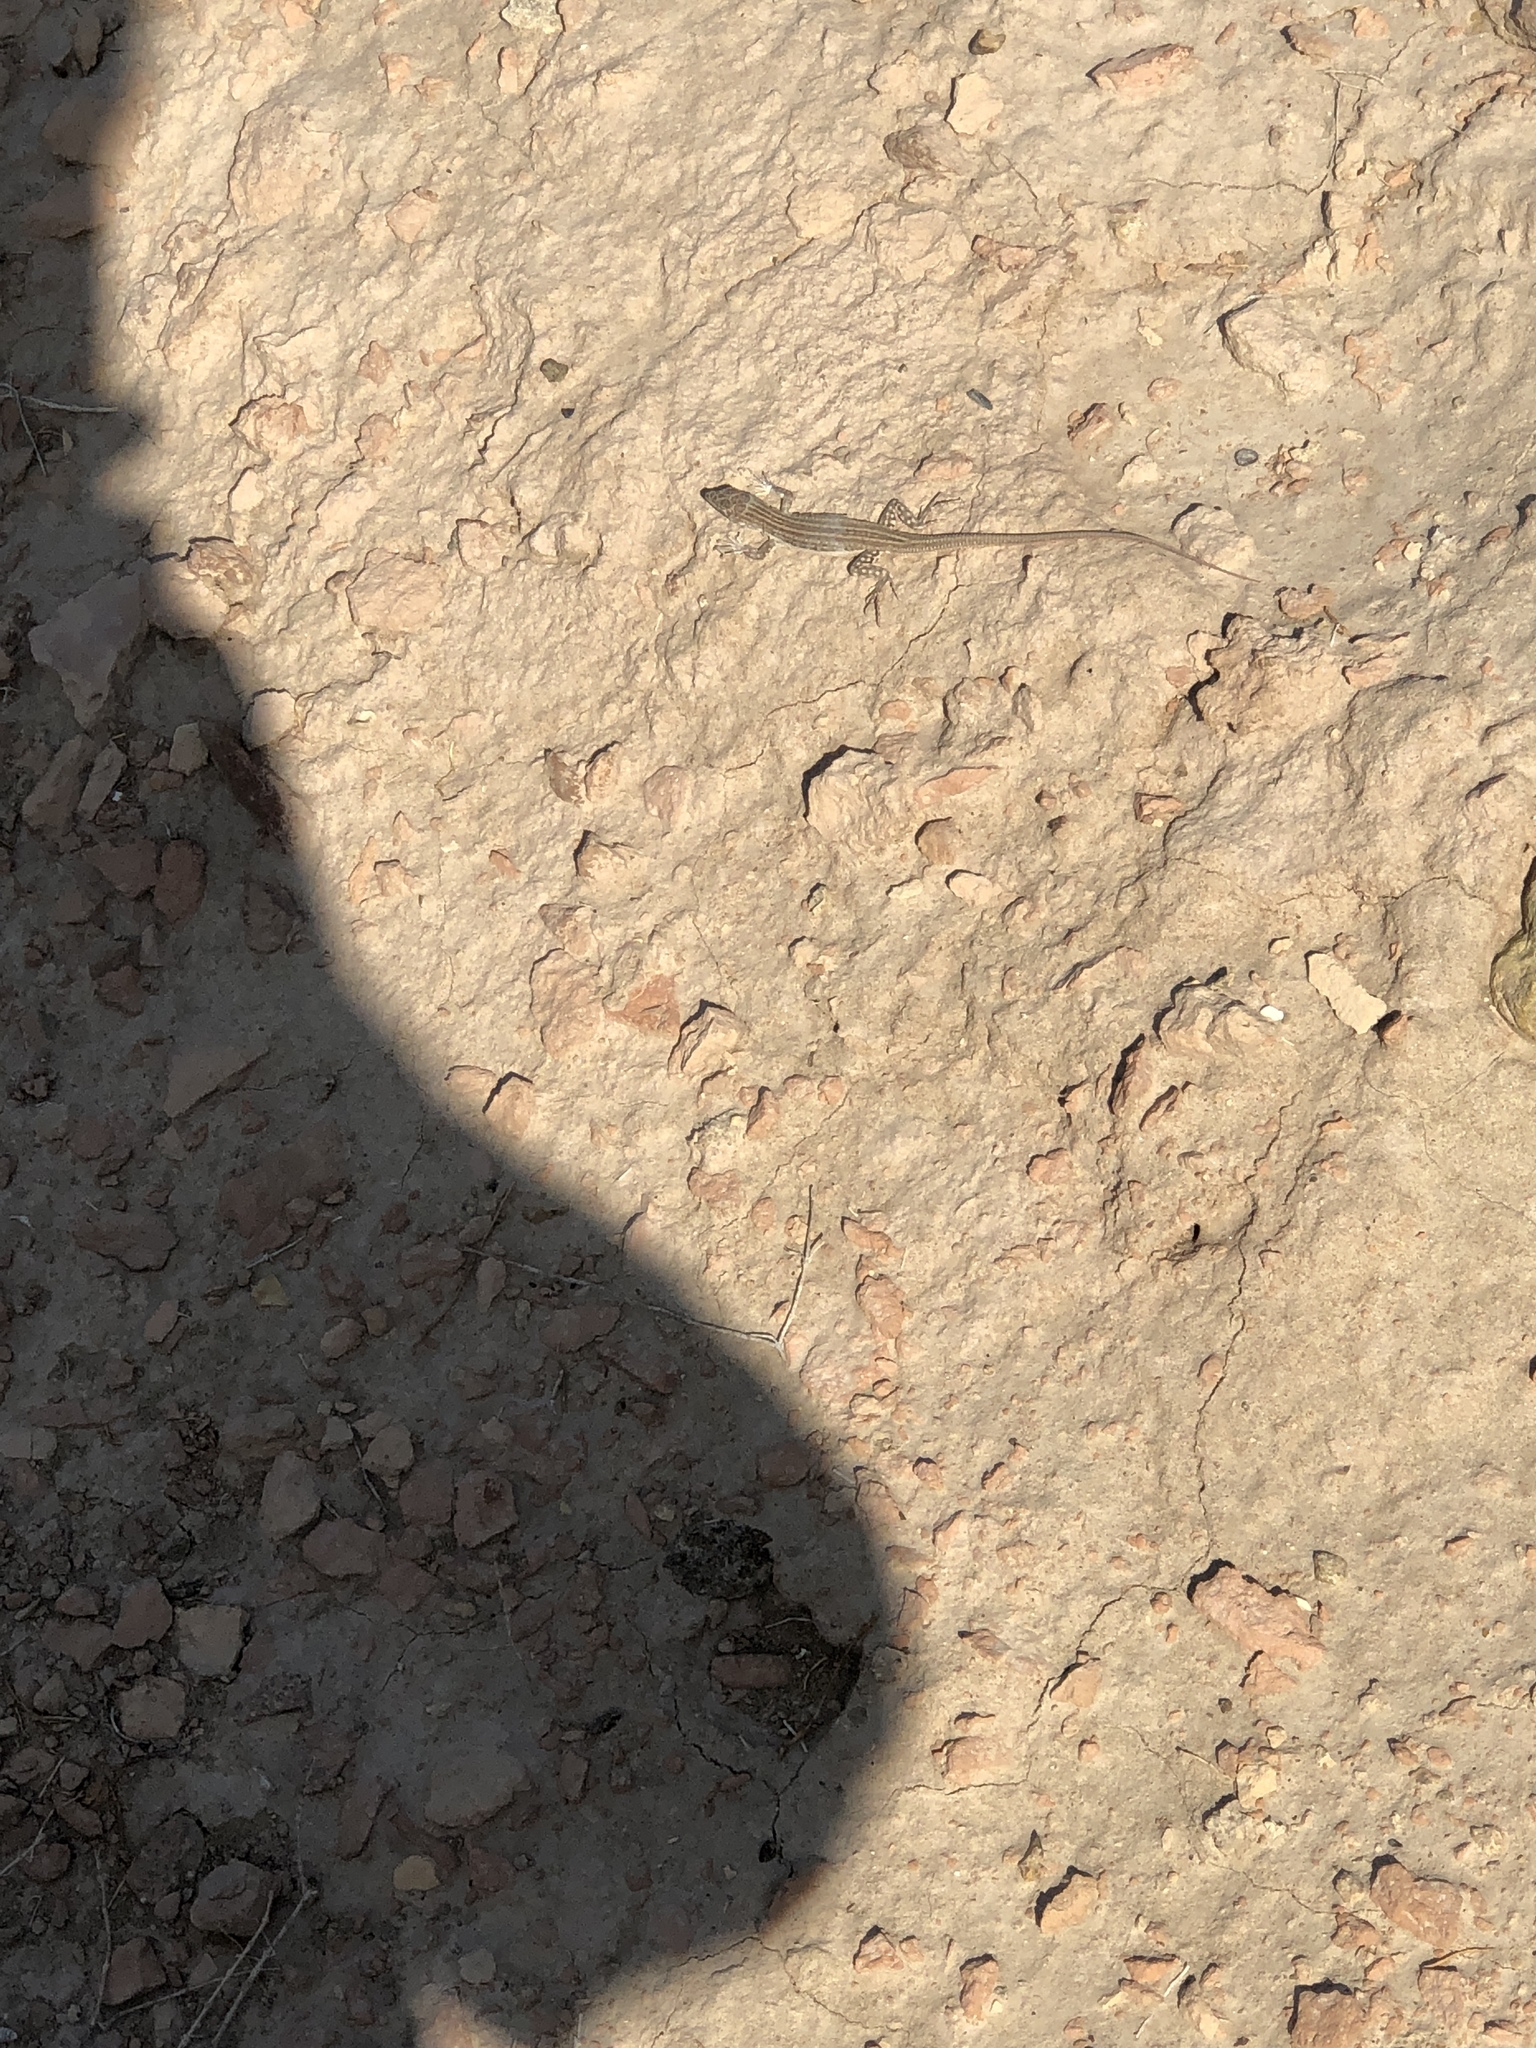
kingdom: Animalia
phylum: Chordata
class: Squamata
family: Lacertidae
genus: Eremias
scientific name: Eremias velox
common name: Central asian racerunner
